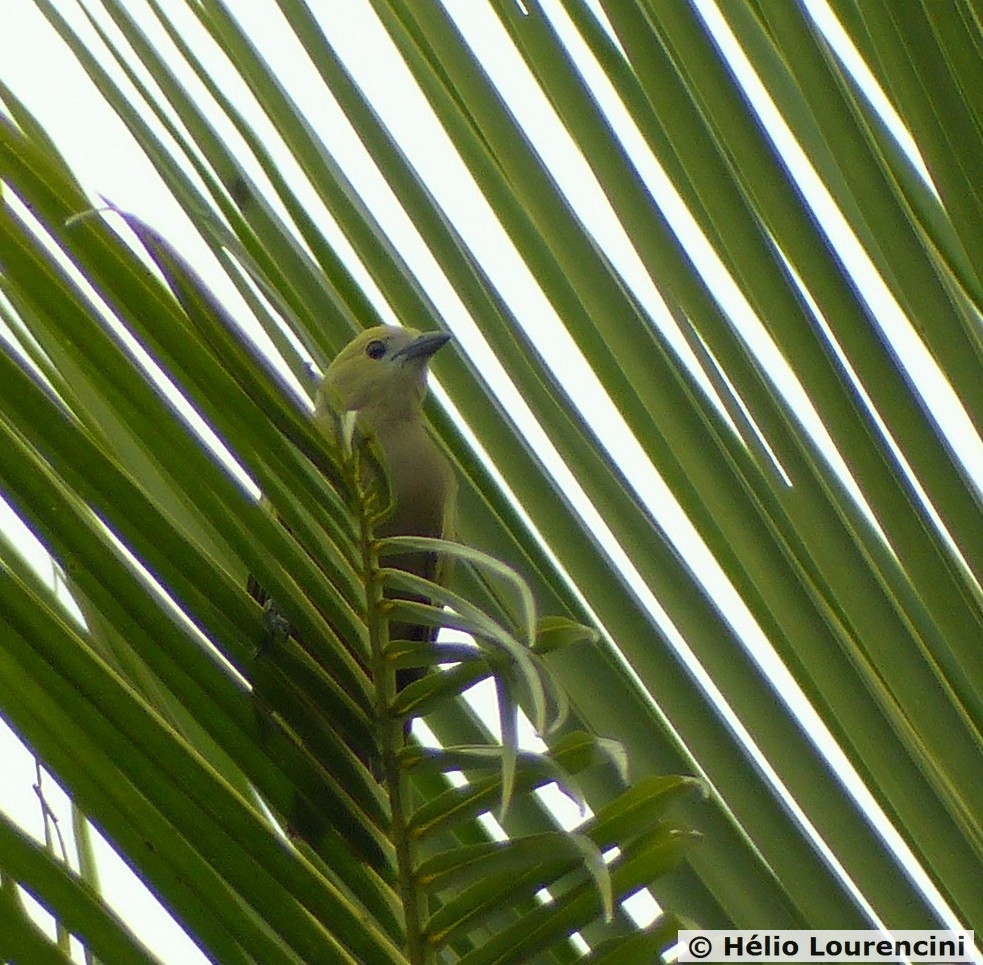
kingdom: Animalia
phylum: Chordata
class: Aves
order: Passeriformes
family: Thraupidae
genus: Thraupis
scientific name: Thraupis palmarum
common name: Palm tanager
